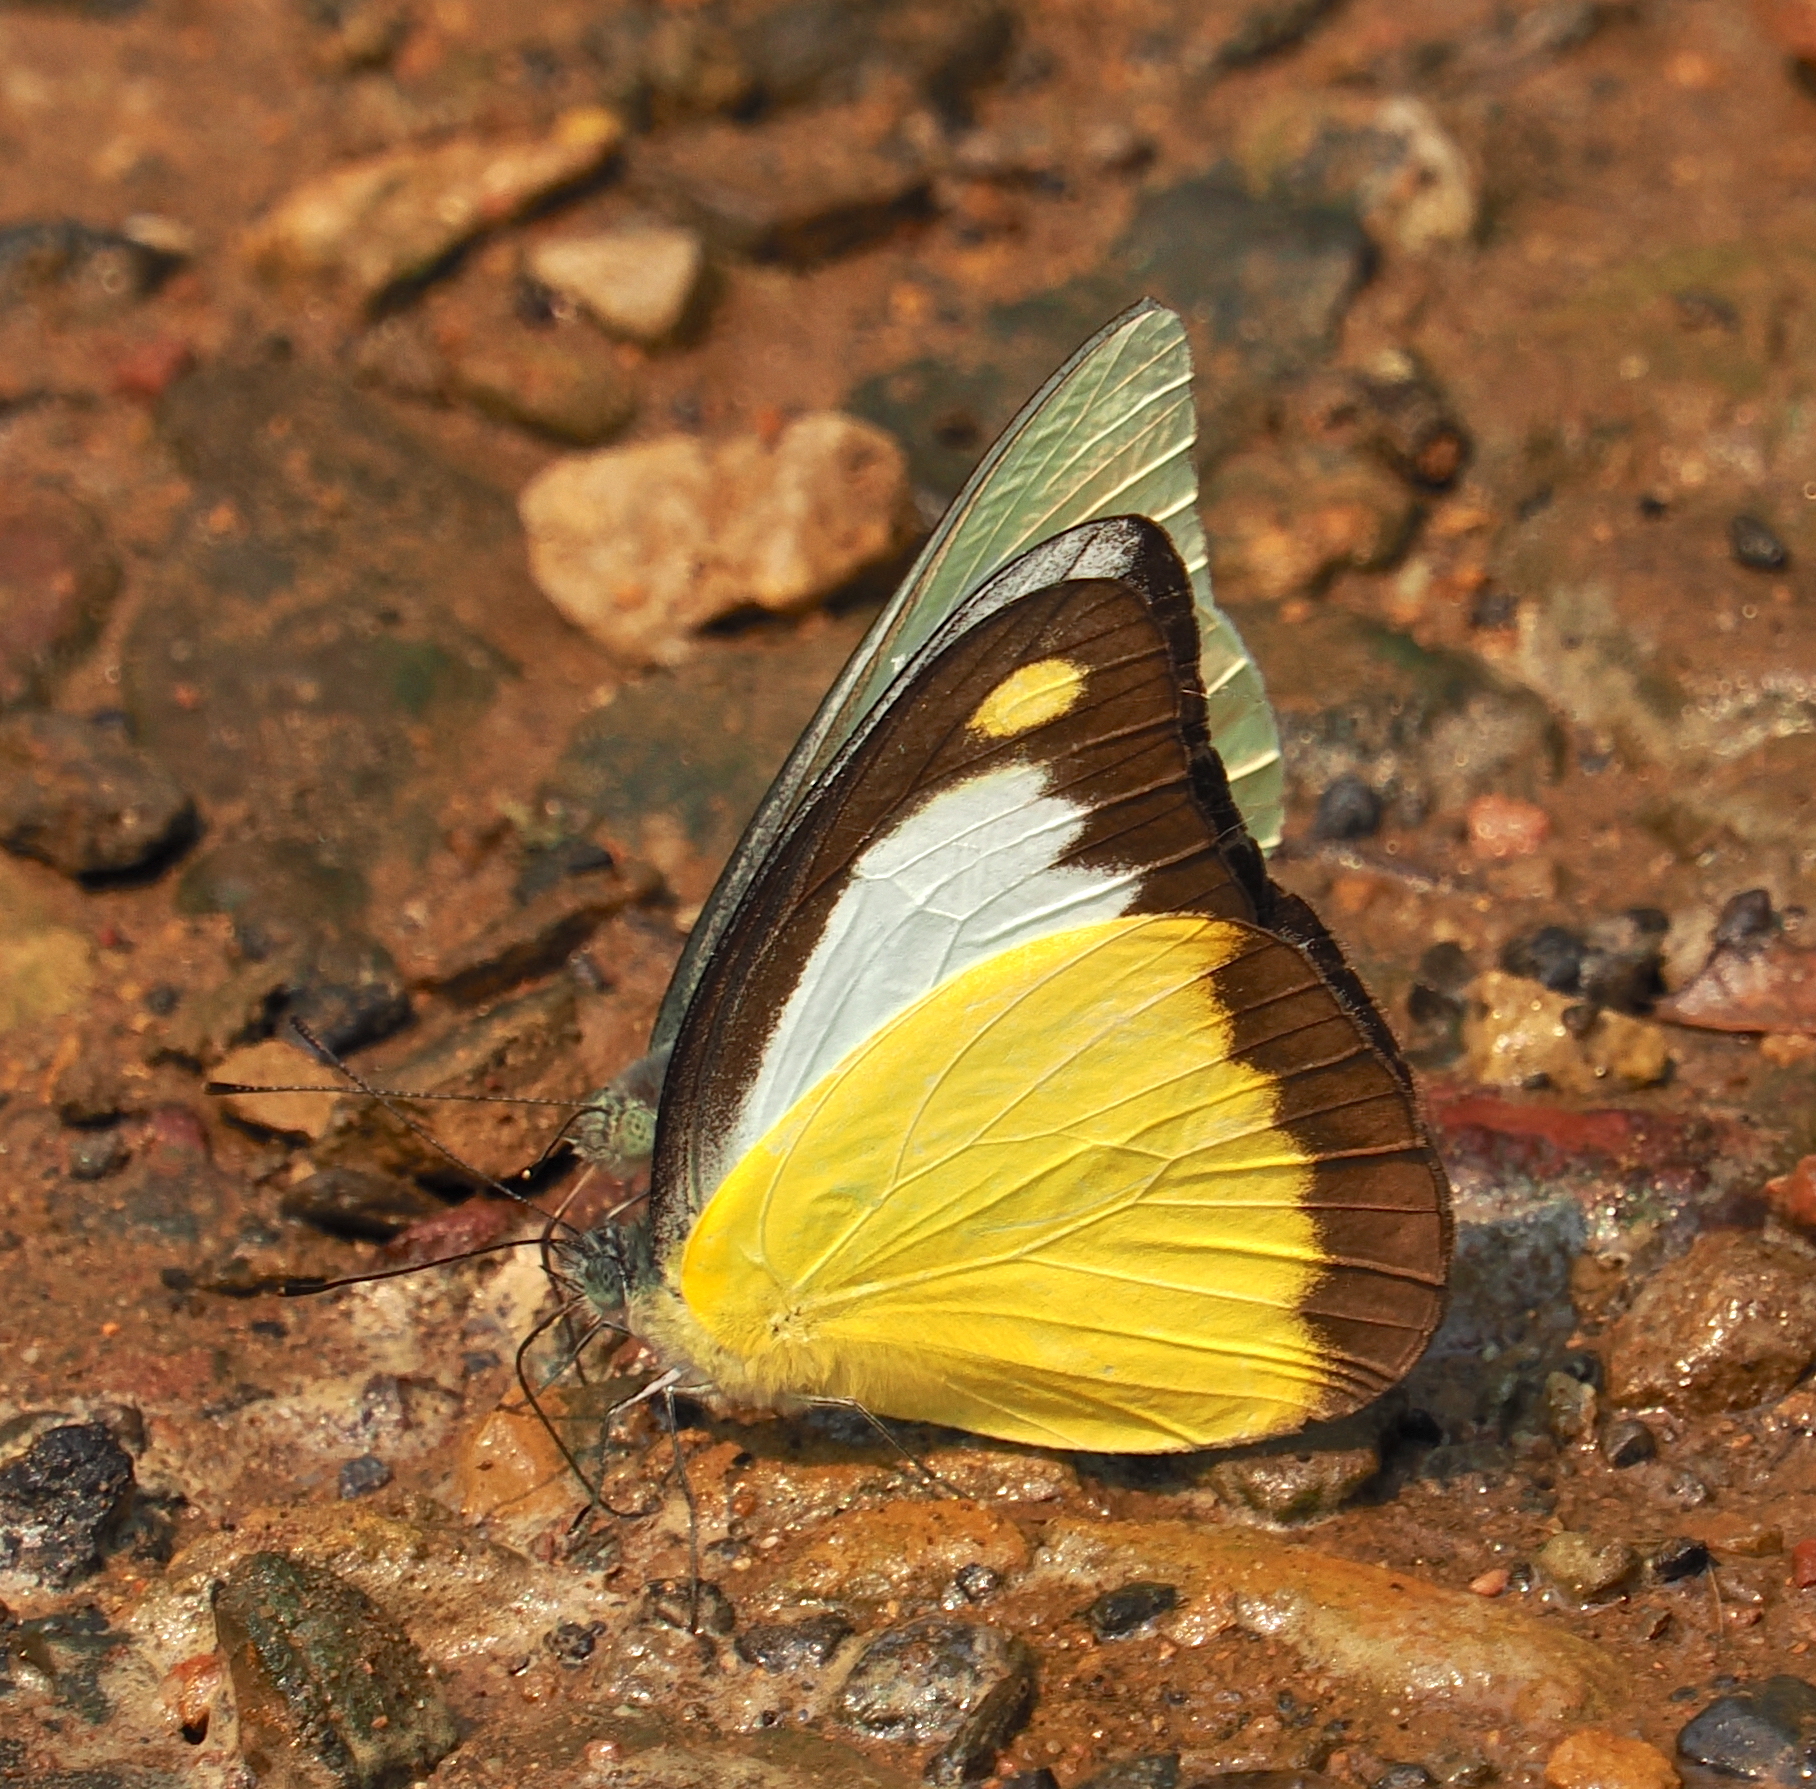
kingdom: Animalia
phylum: Arthropoda
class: Insecta
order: Lepidoptera
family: Pieridae
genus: Appias
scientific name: Appias lyncida
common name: Chocolate albatross
